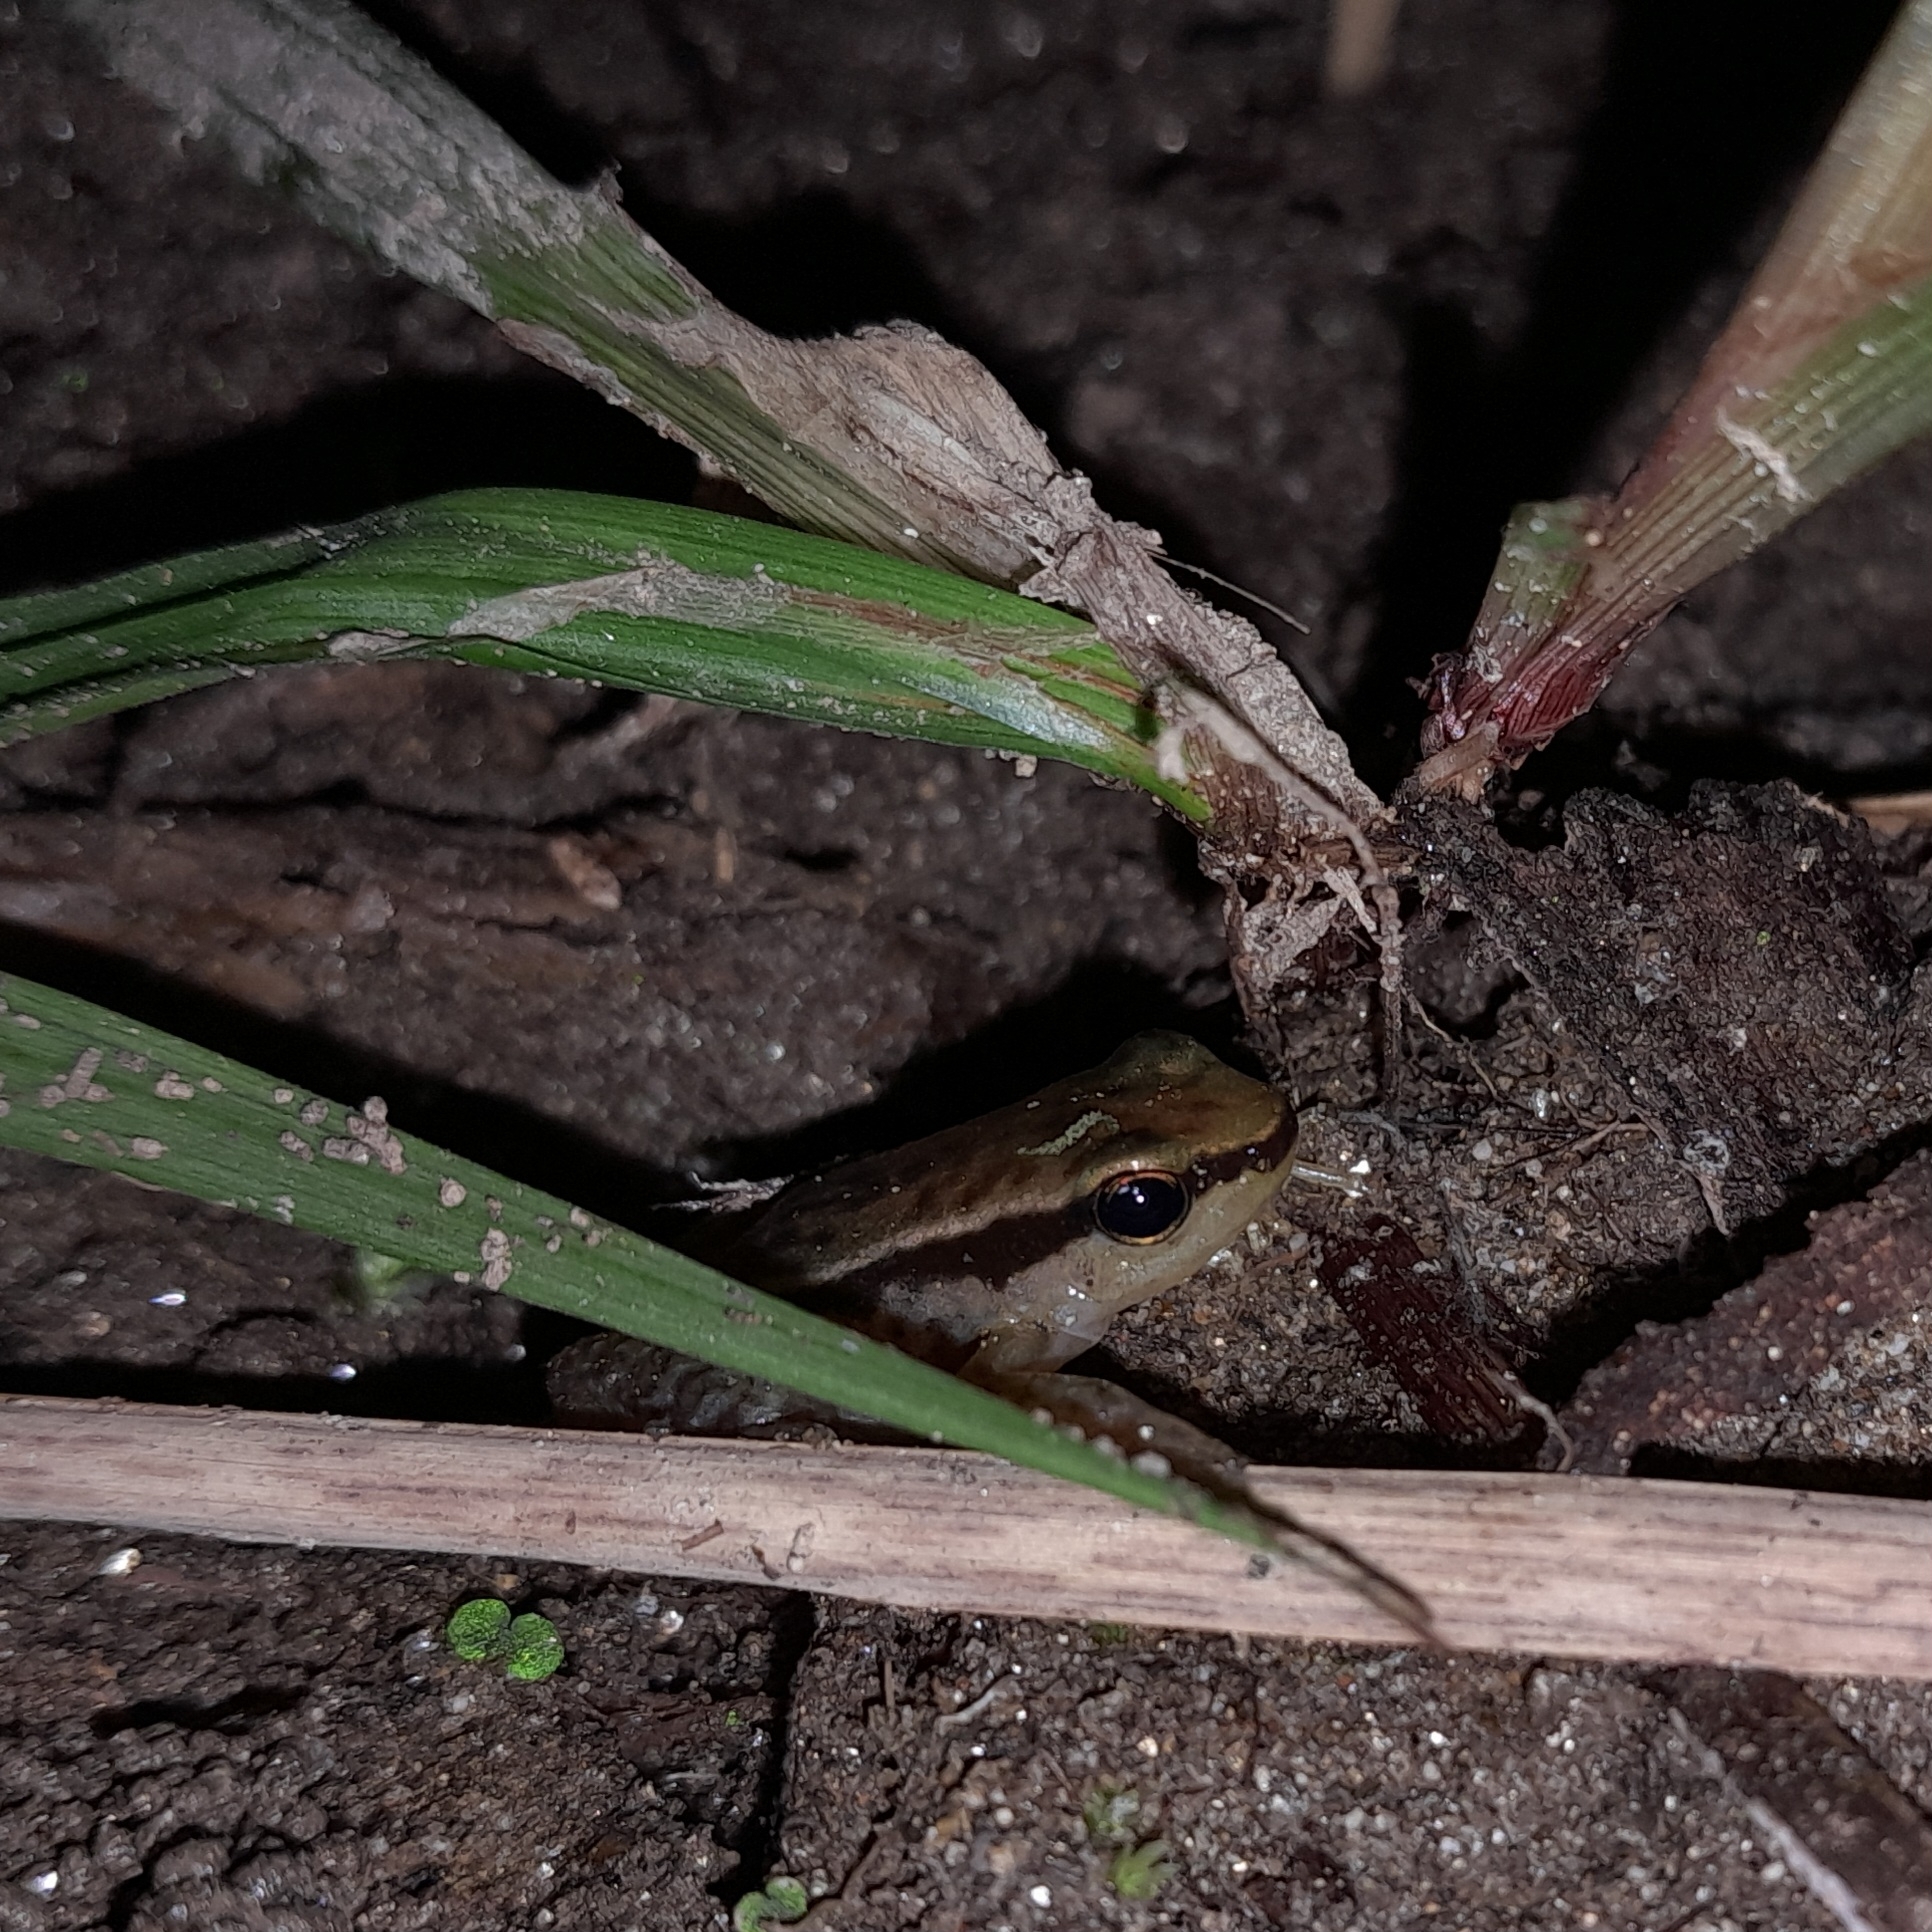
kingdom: Animalia
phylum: Chordata
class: Amphibia
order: Anura
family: Dendrobatidae
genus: Colostethus
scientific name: Colostethus ruthveni
